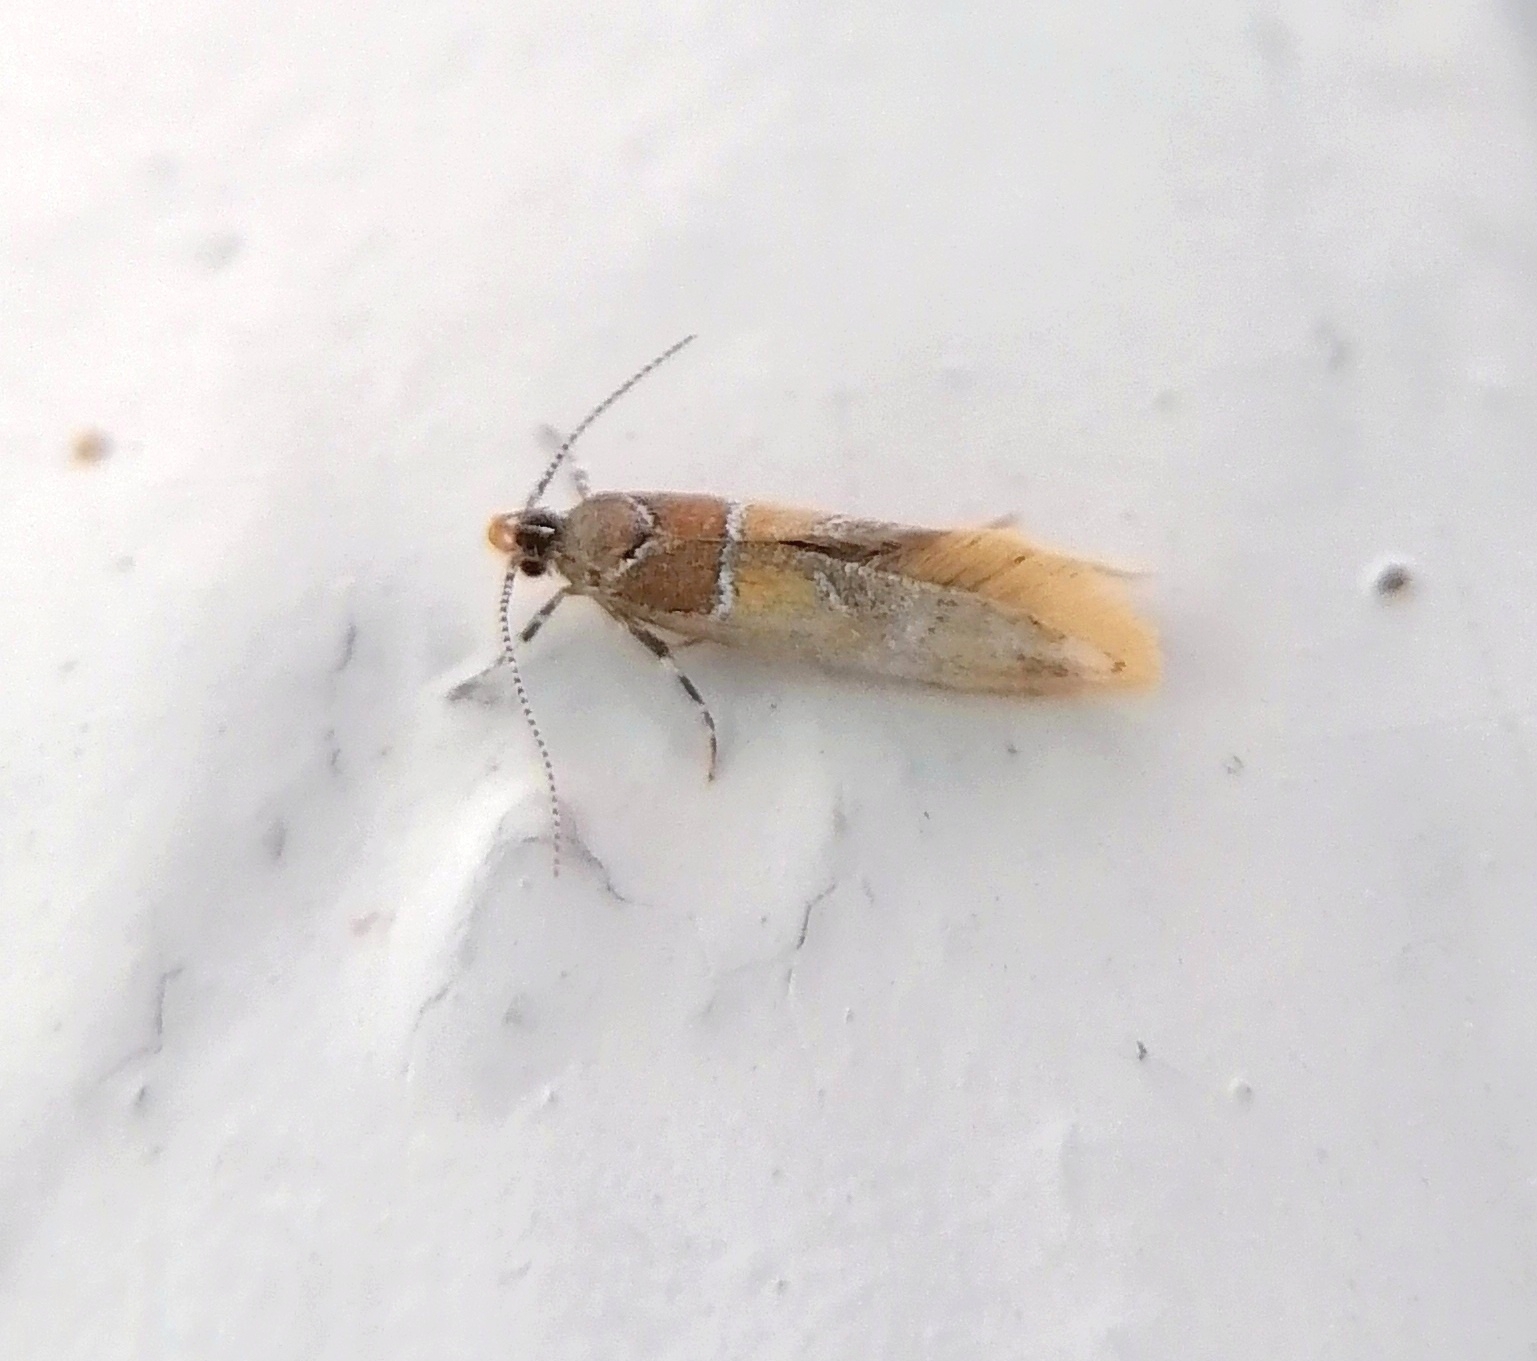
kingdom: Animalia
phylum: Arthropoda
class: Insecta
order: Lepidoptera
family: Oecophoridae
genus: Promalactis
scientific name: Promalactis venustella
